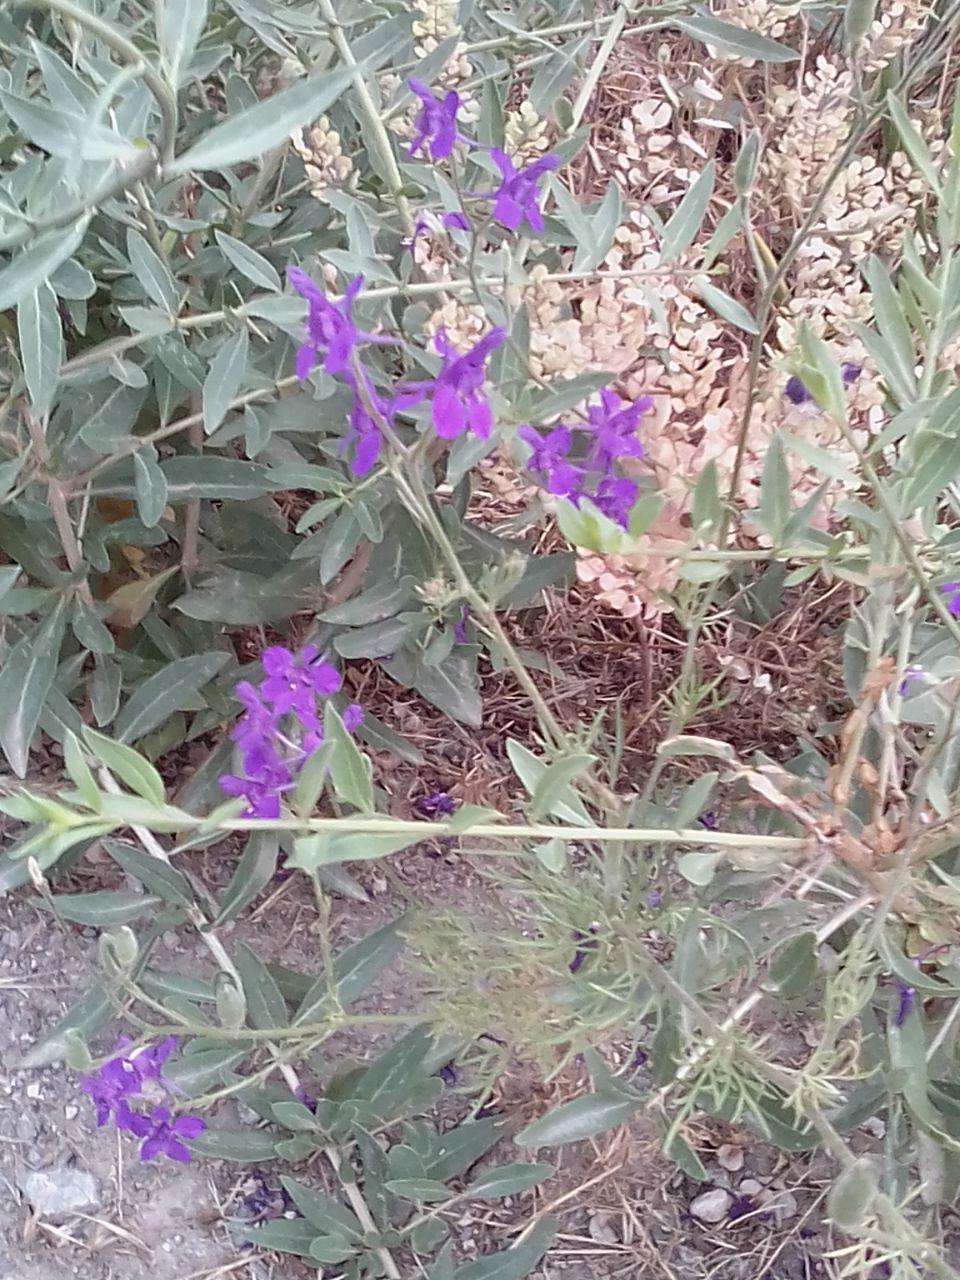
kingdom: Plantae
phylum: Tracheophyta
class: Magnoliopsida
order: Ranunculales
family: Ranunculaceae
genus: Delphinium
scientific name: Delphinium consolida
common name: Branching larkspur
